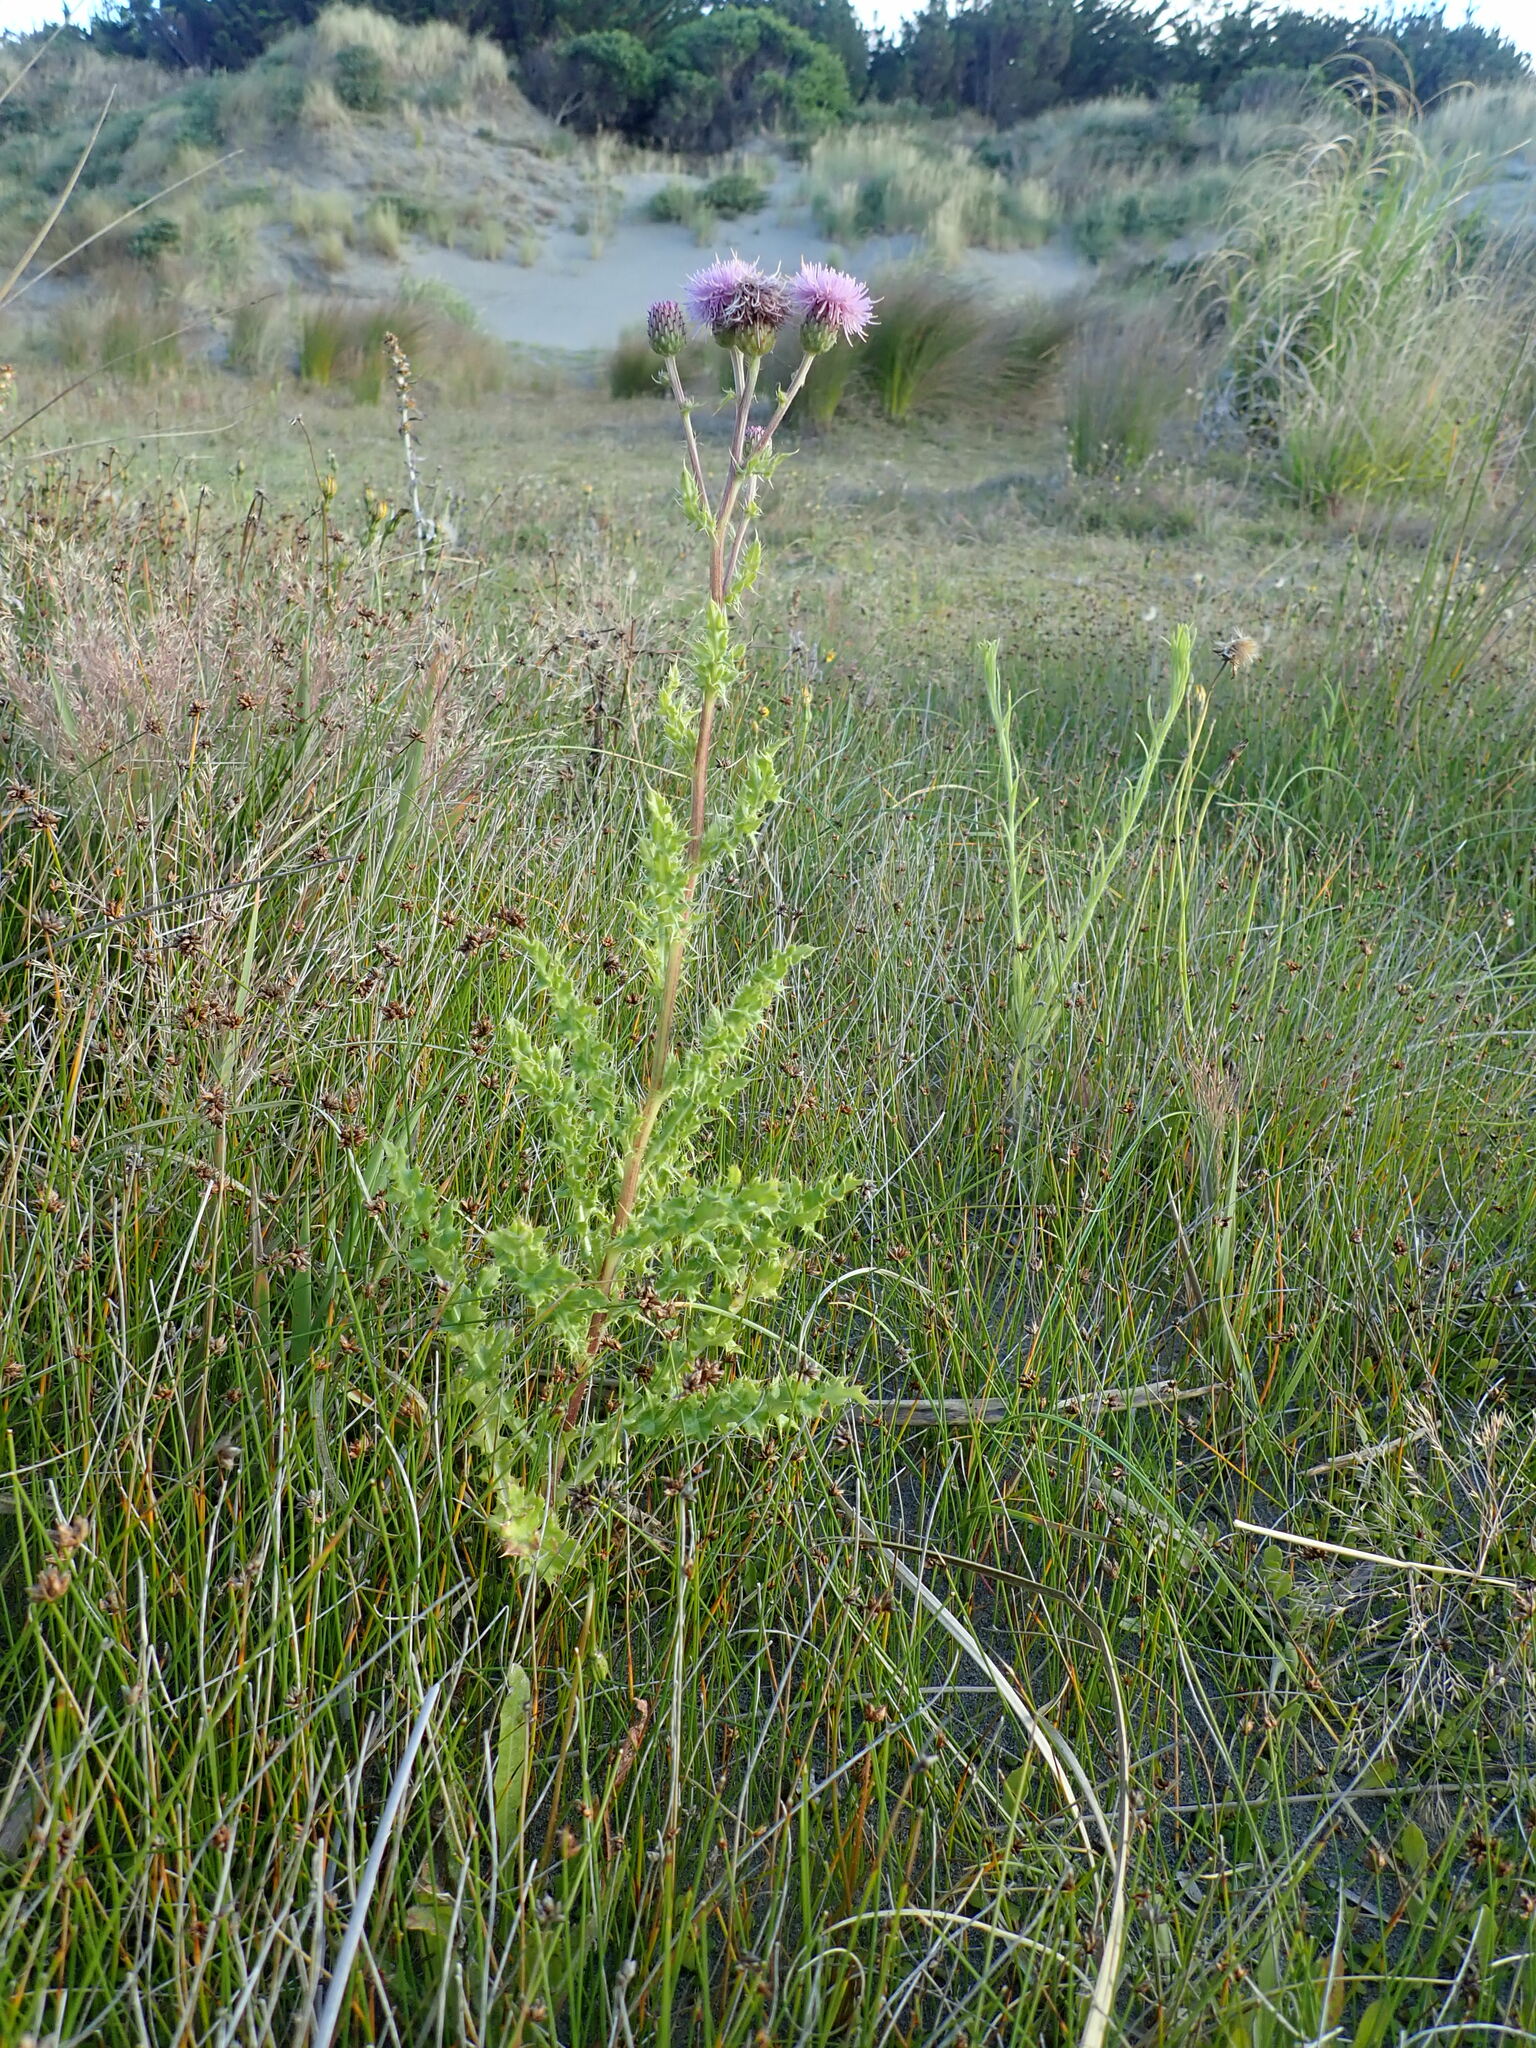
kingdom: Plantae
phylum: Tracheophyta
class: Magnoliopsida
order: Asterales
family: Asteraceae
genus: Cirsium
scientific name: Cirsium arvense
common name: Creeping thistle
